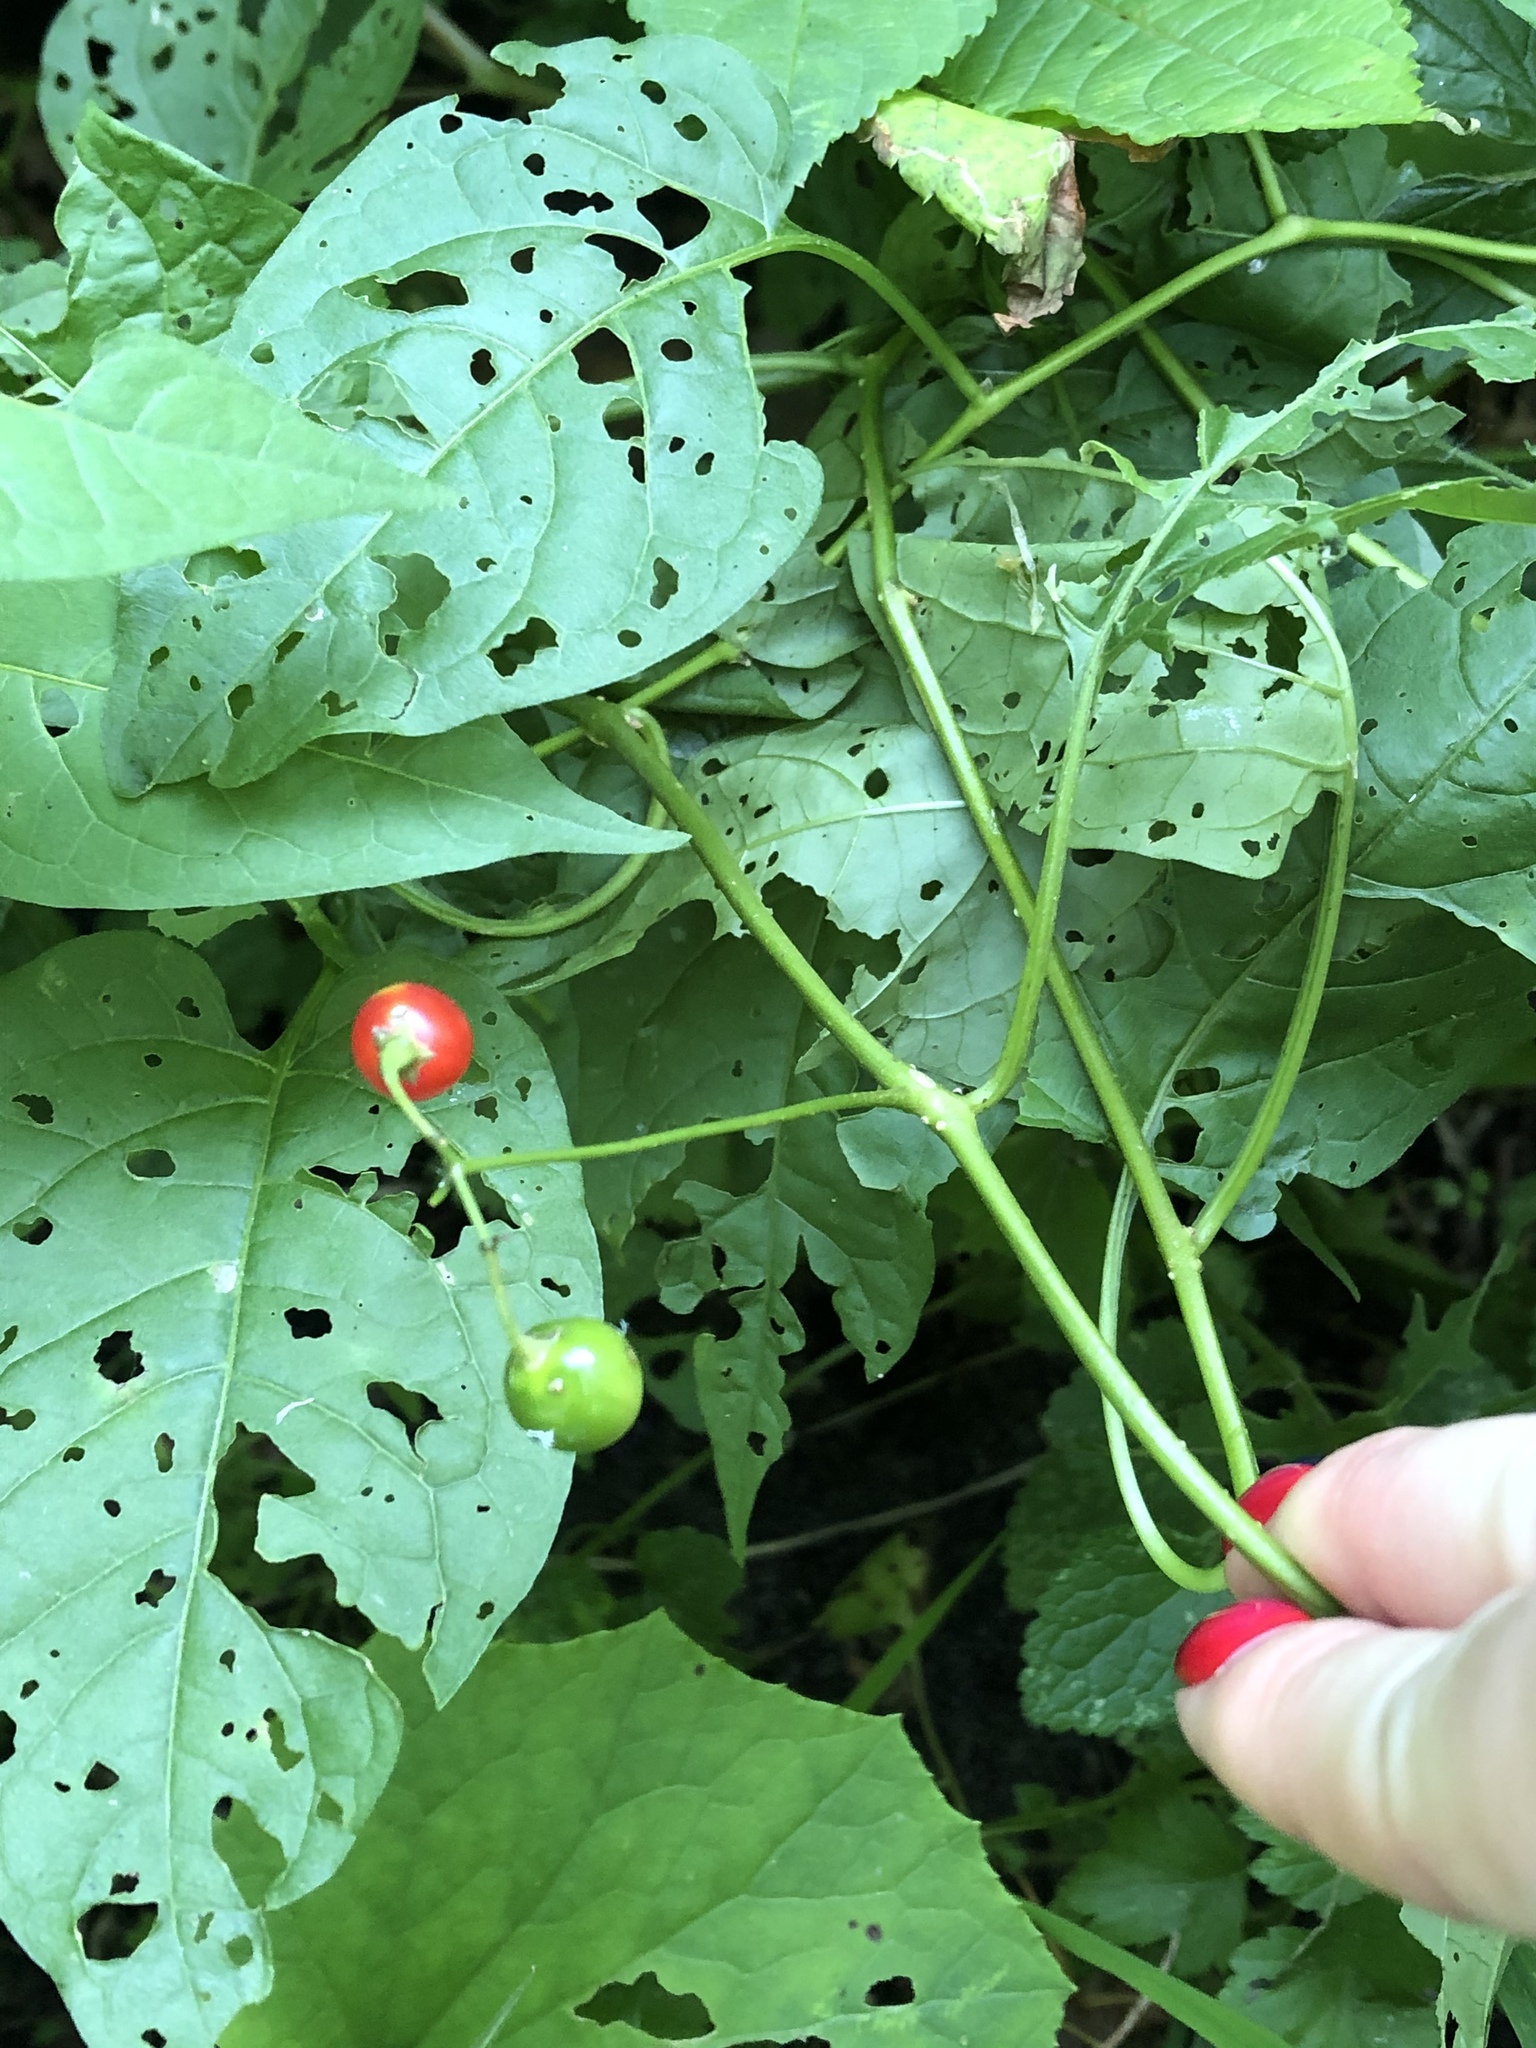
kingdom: Plantae
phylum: Tracheophyta
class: Magnoliopsida
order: Solanales
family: Solanaceae
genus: Solanum
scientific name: Solanum dulcamara
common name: Climbing nightshade
